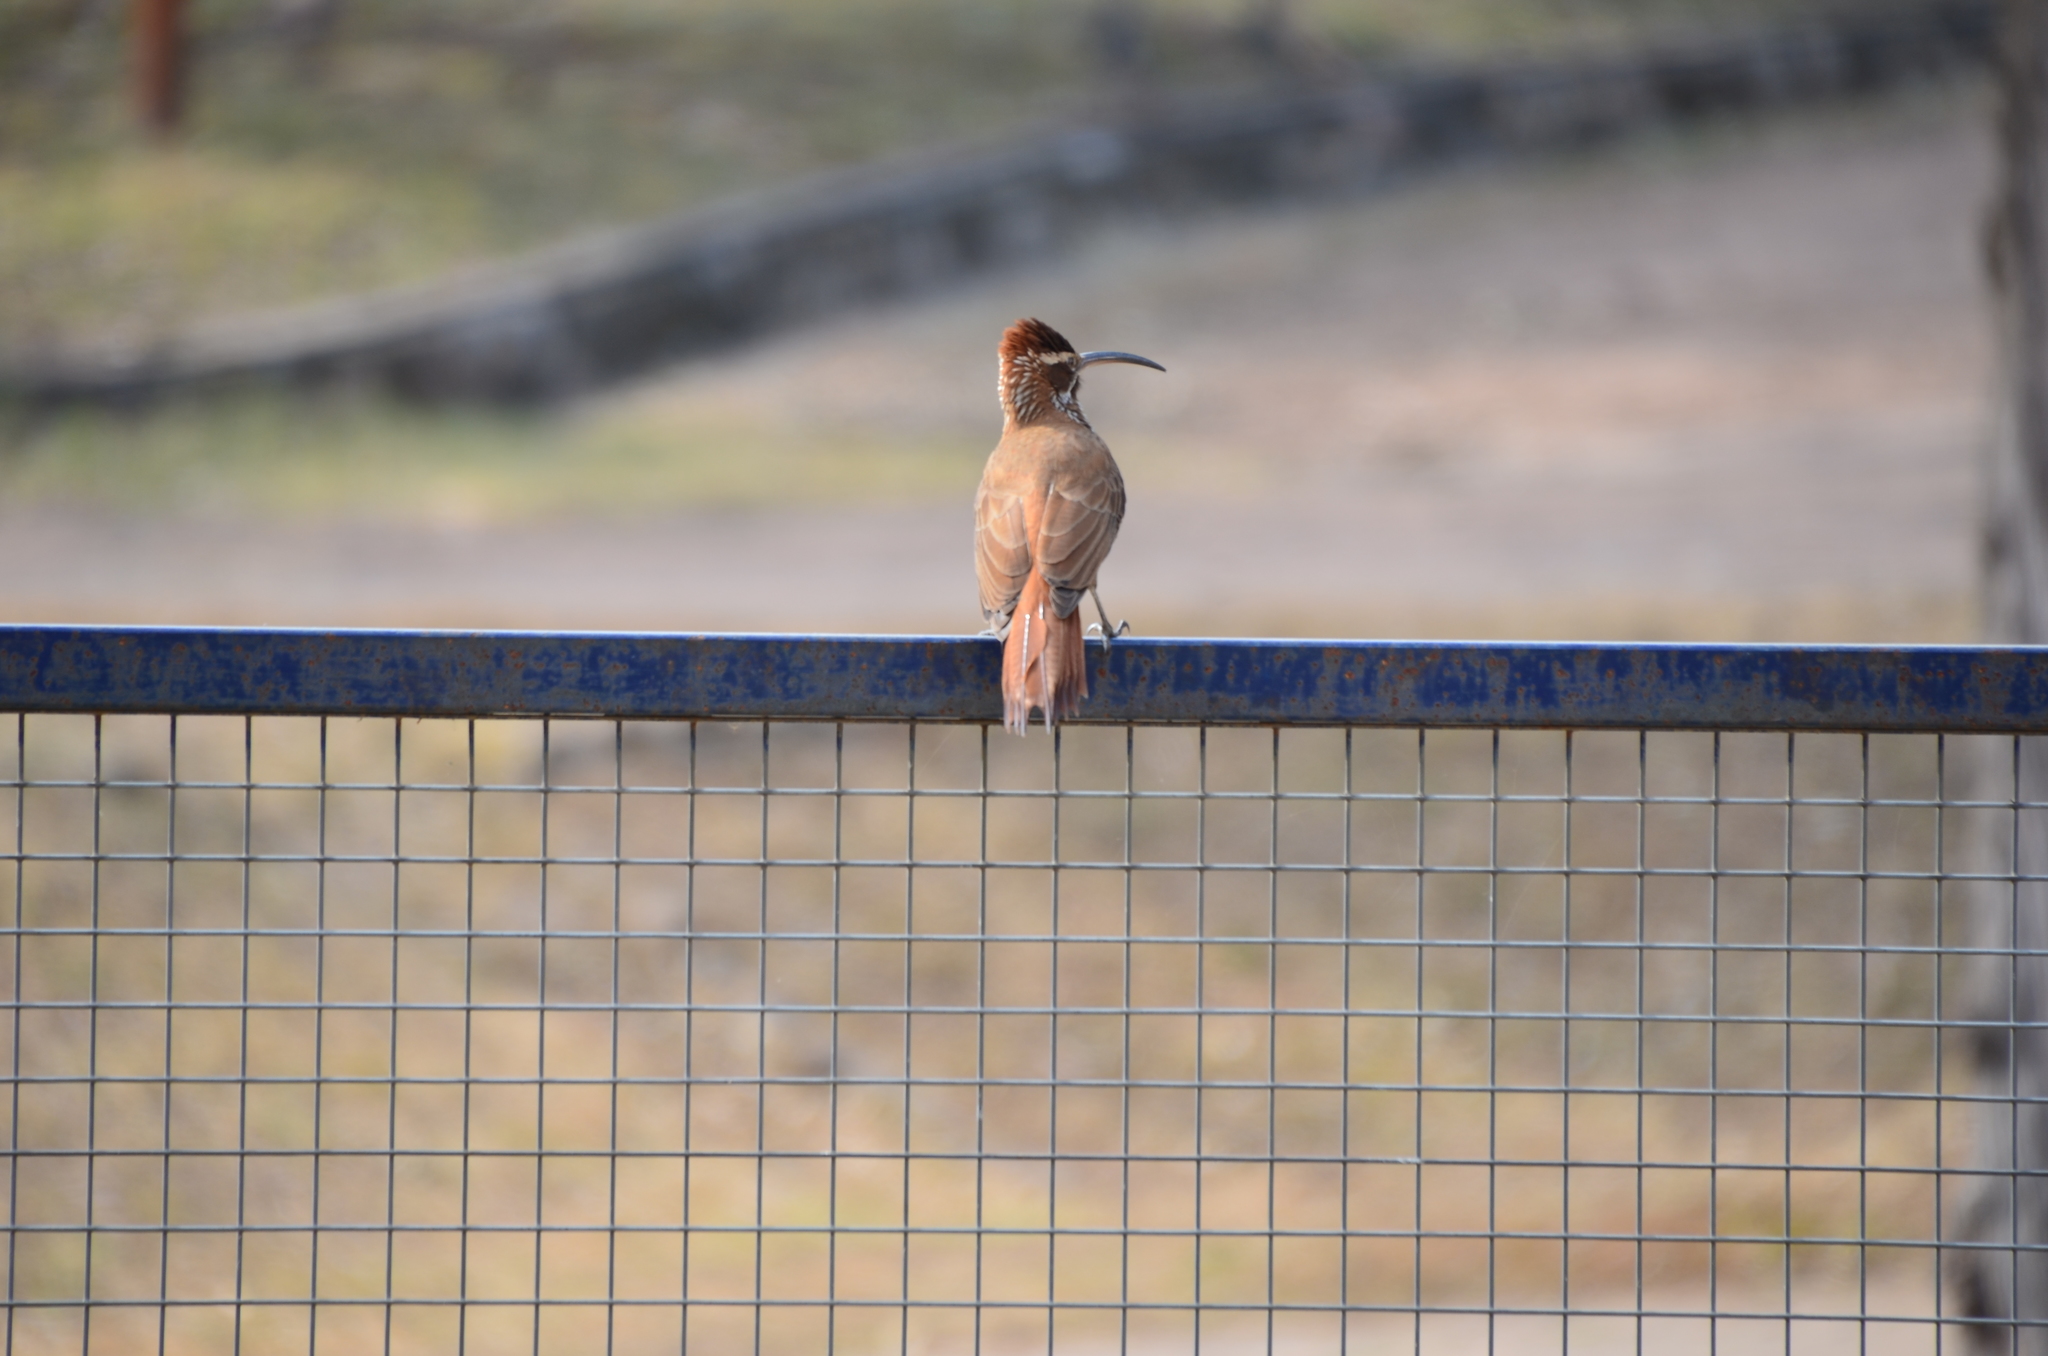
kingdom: Animalia
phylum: Chordata
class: Aves
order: Passeriformes
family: Furnariidae
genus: Drymornis
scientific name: Drymornis bridgesii
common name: Scimitar-billed woodcreeper
